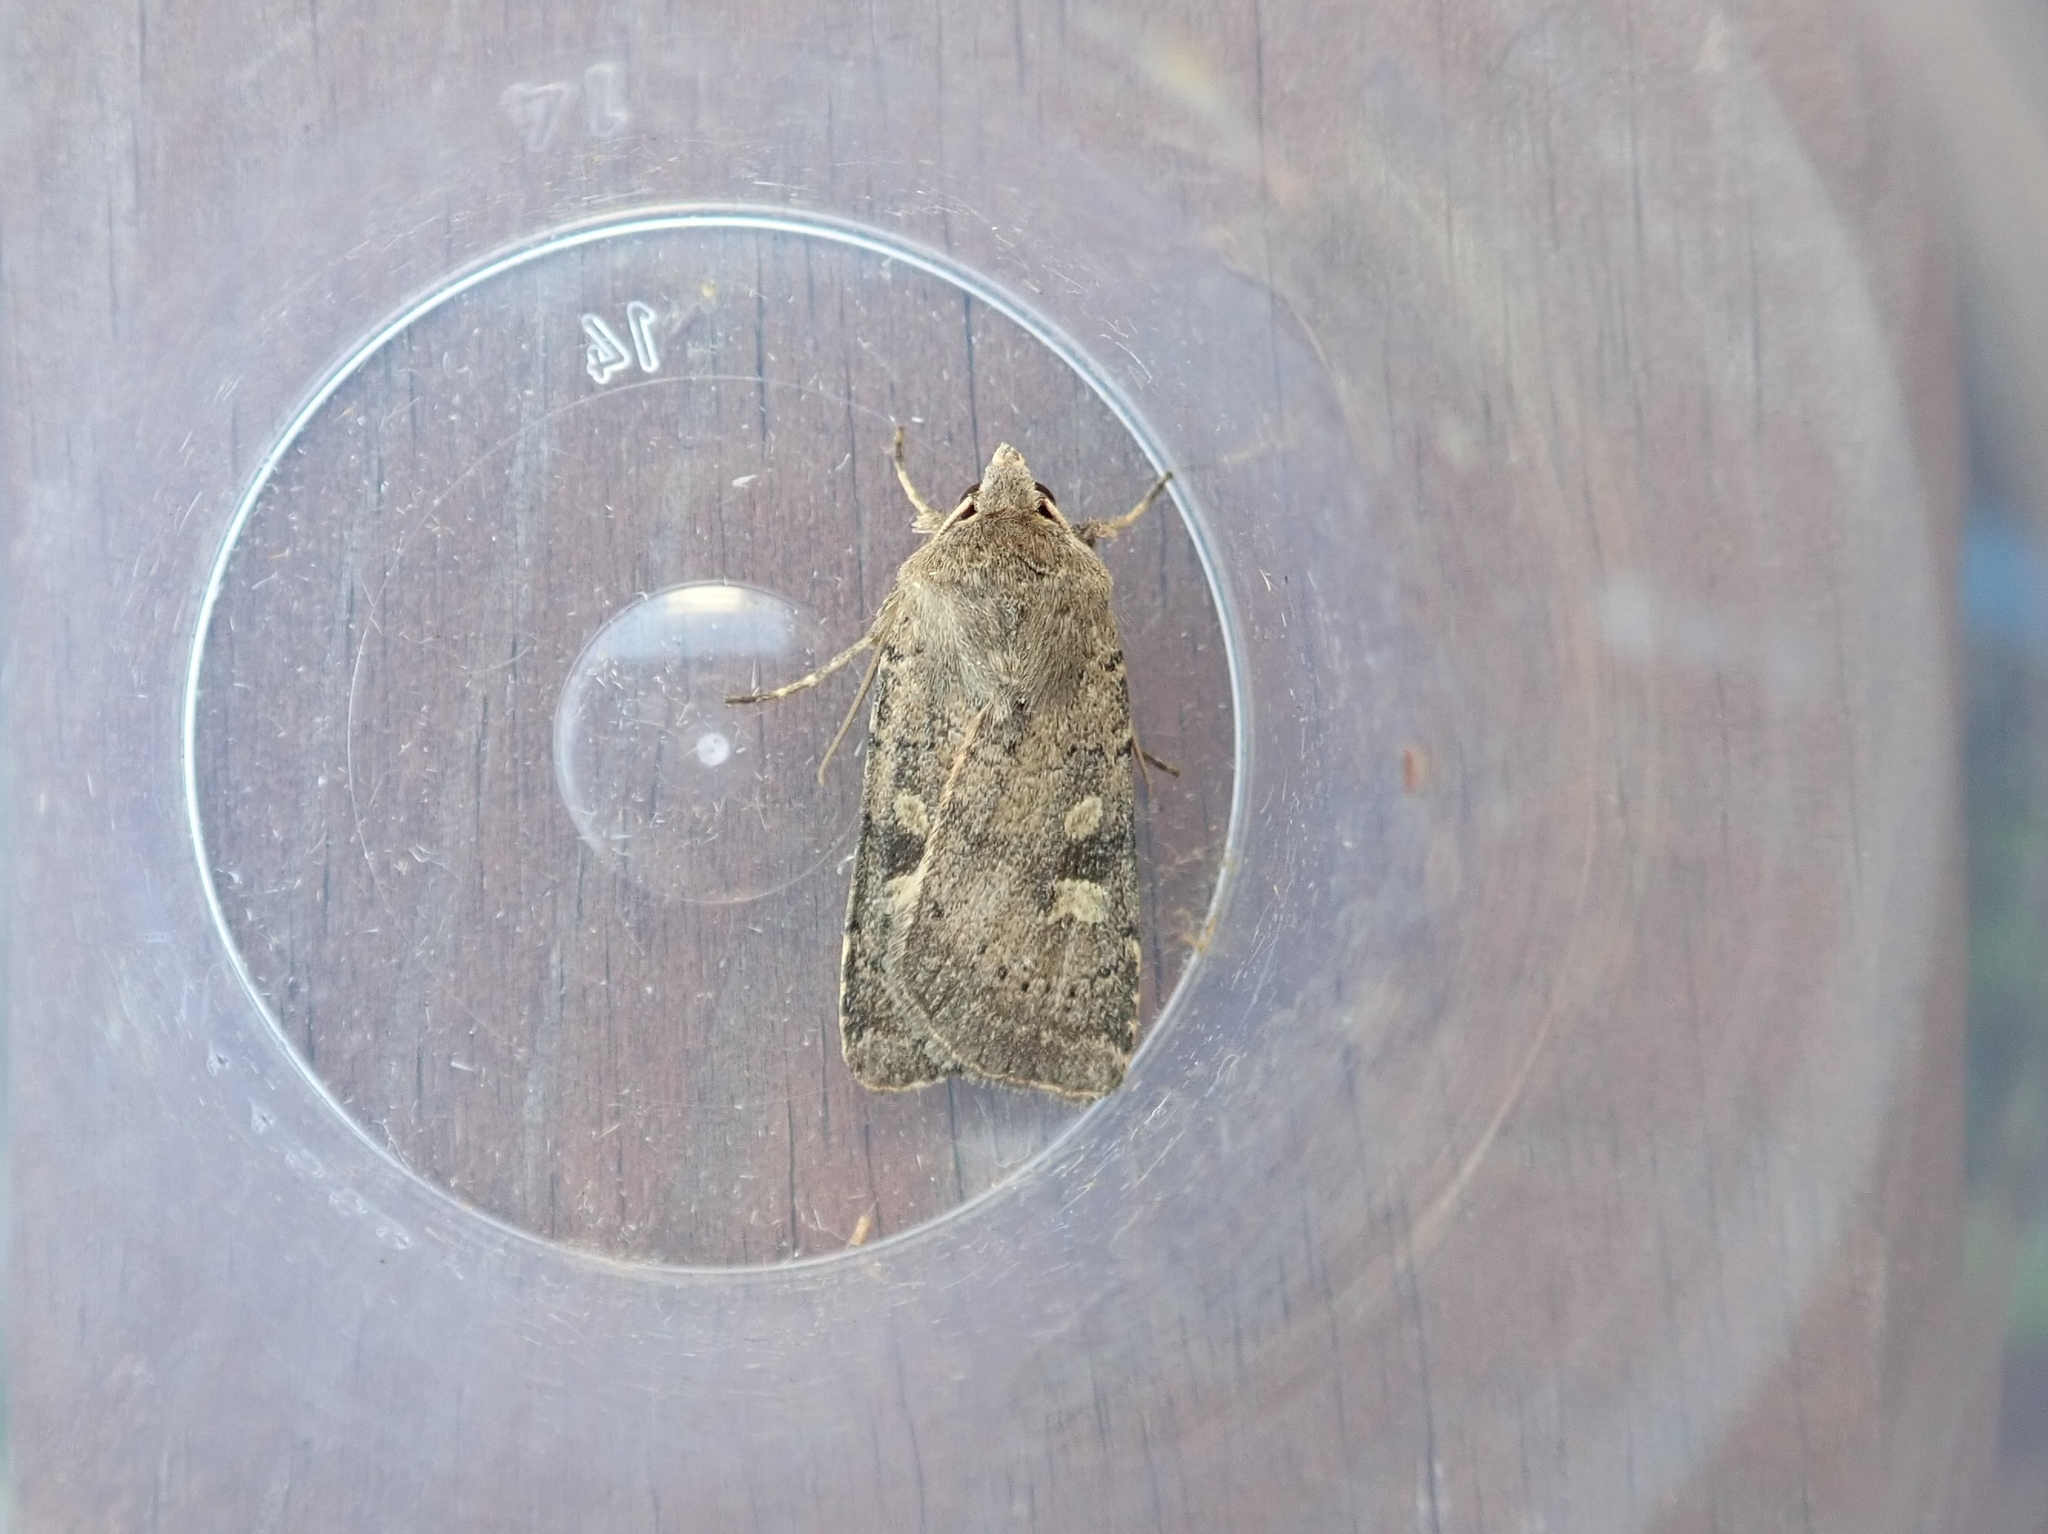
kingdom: Animalia
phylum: Arthropoda
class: Insecta
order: Lepidoptera
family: Noctuidae
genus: Xestia
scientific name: Xestia xanthographa
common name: Square-spot rustic
